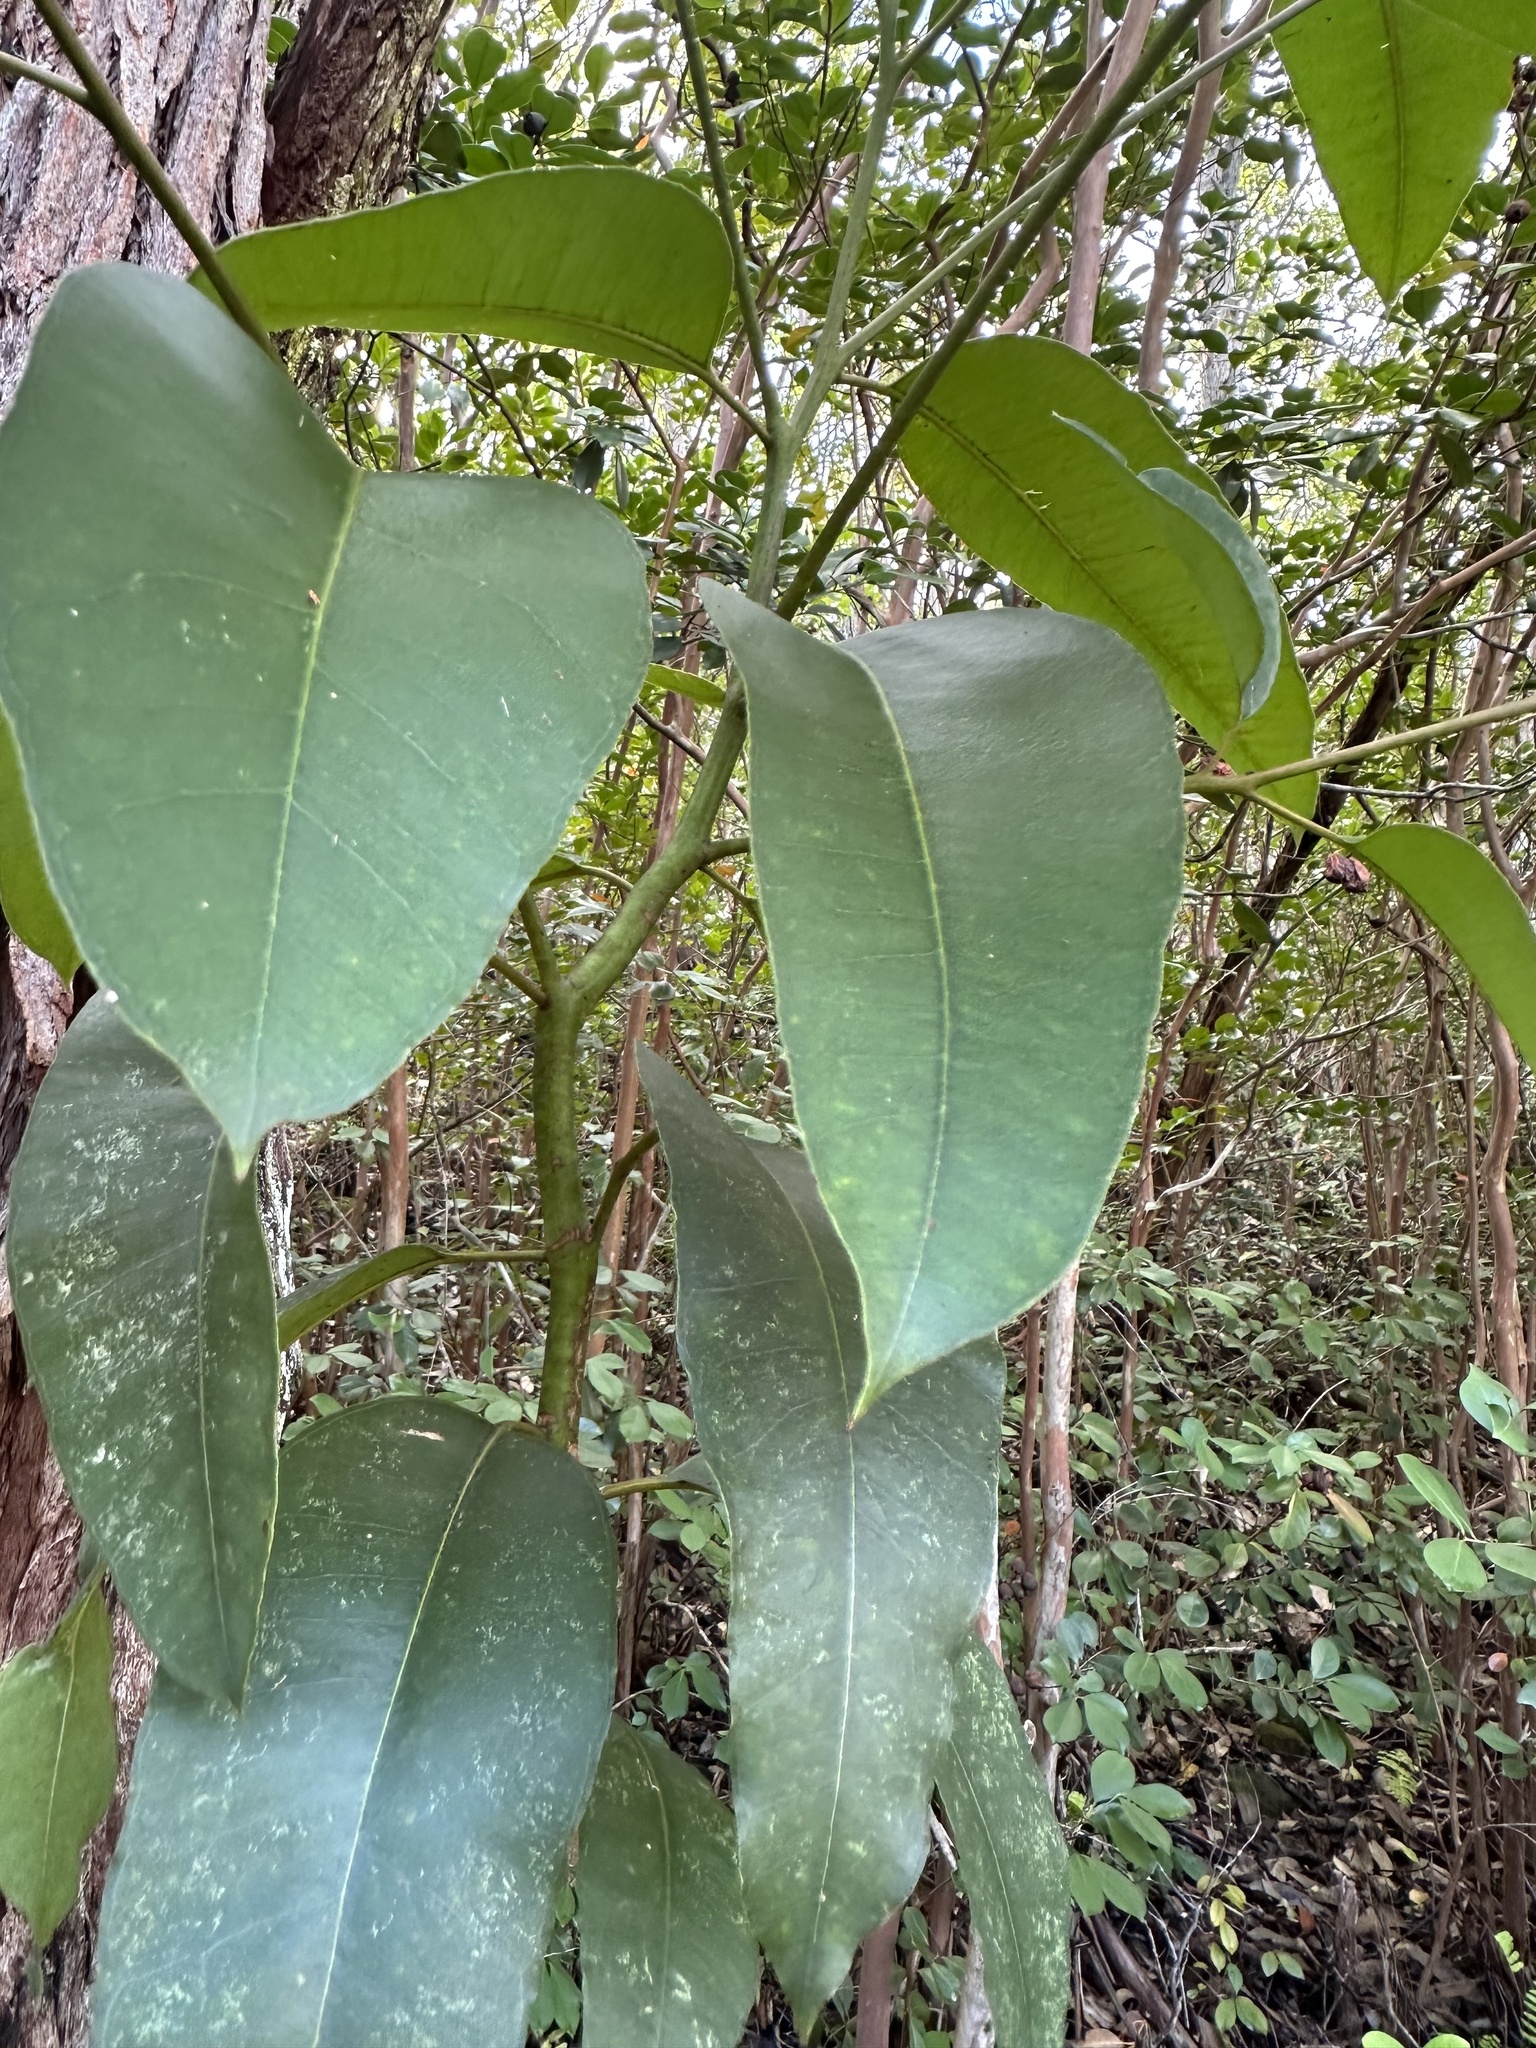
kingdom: Plantae
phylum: Tracheophyta
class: Magnoliopsida
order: Myrtales
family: Myrtaceae
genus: Eucalyptus
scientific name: Eucalyptus robusta
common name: Swampmahogany
